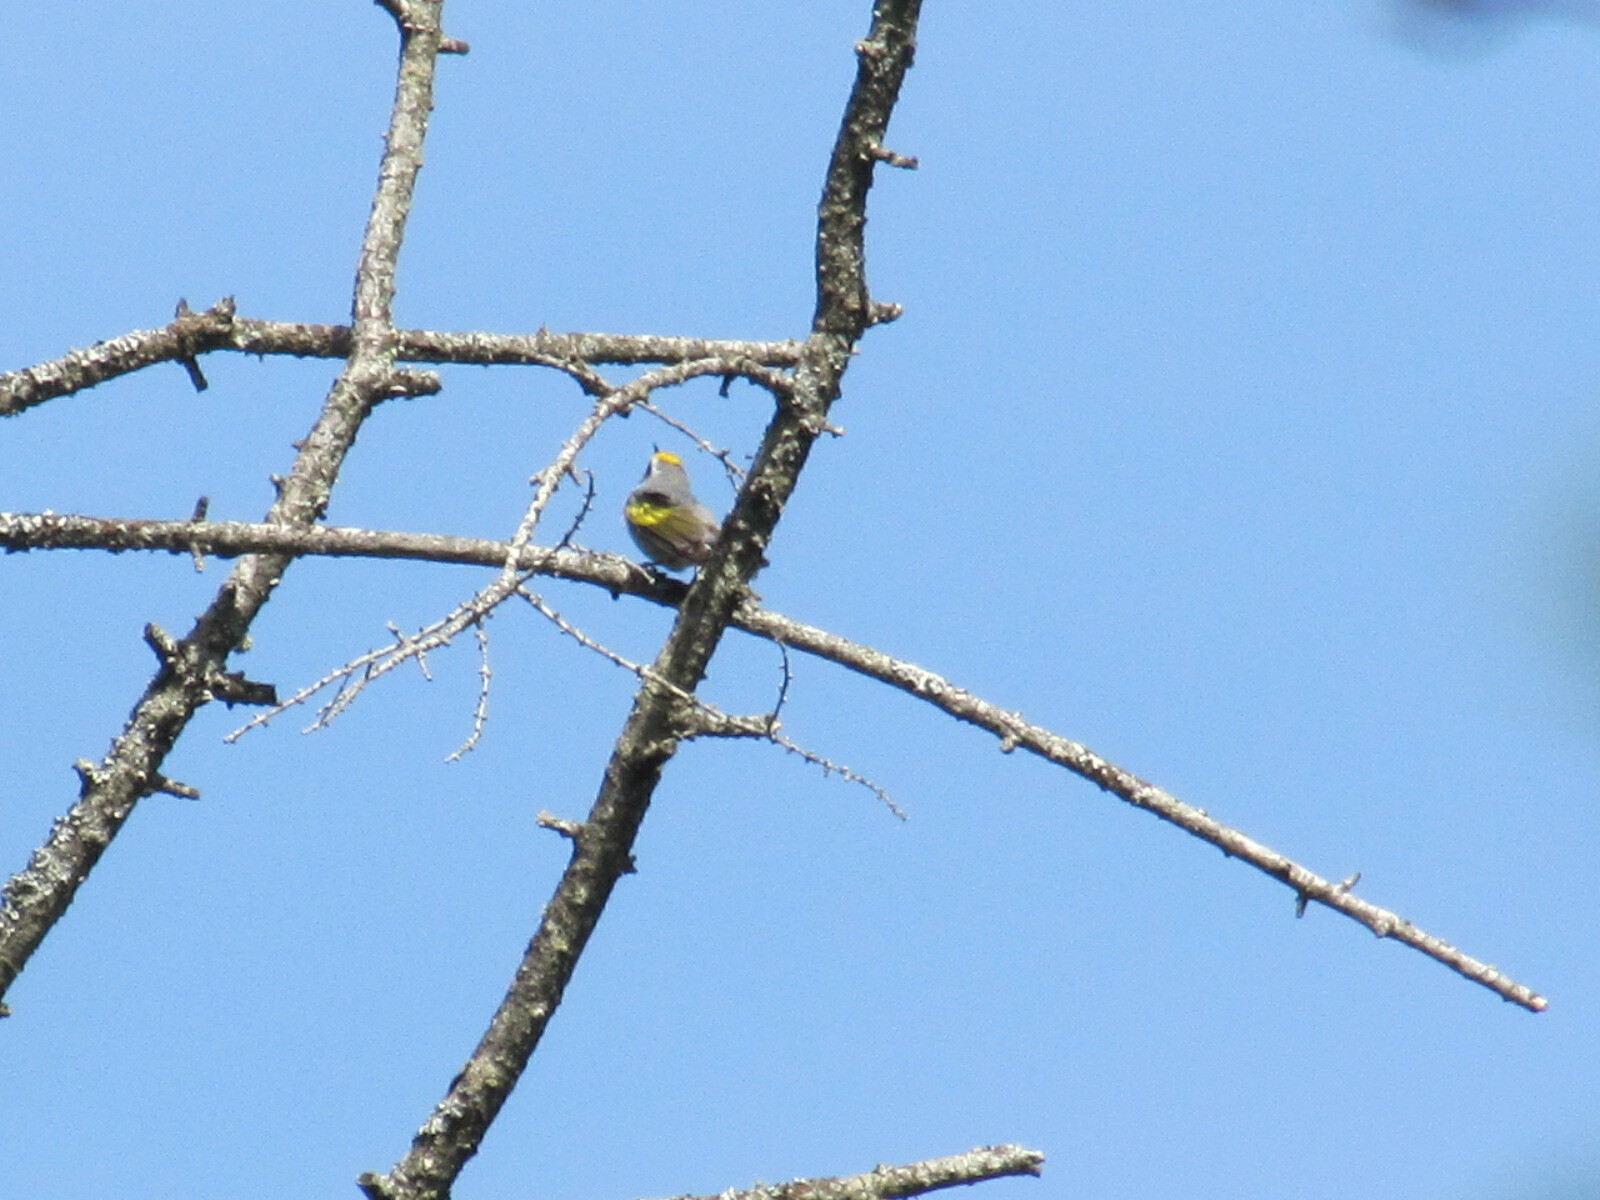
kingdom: Animalia
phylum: Chordata
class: Aves
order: Passeriformes
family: Parulidae
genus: Vermivora
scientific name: Vermivora chrysoptera
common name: Golden-winged warbler
